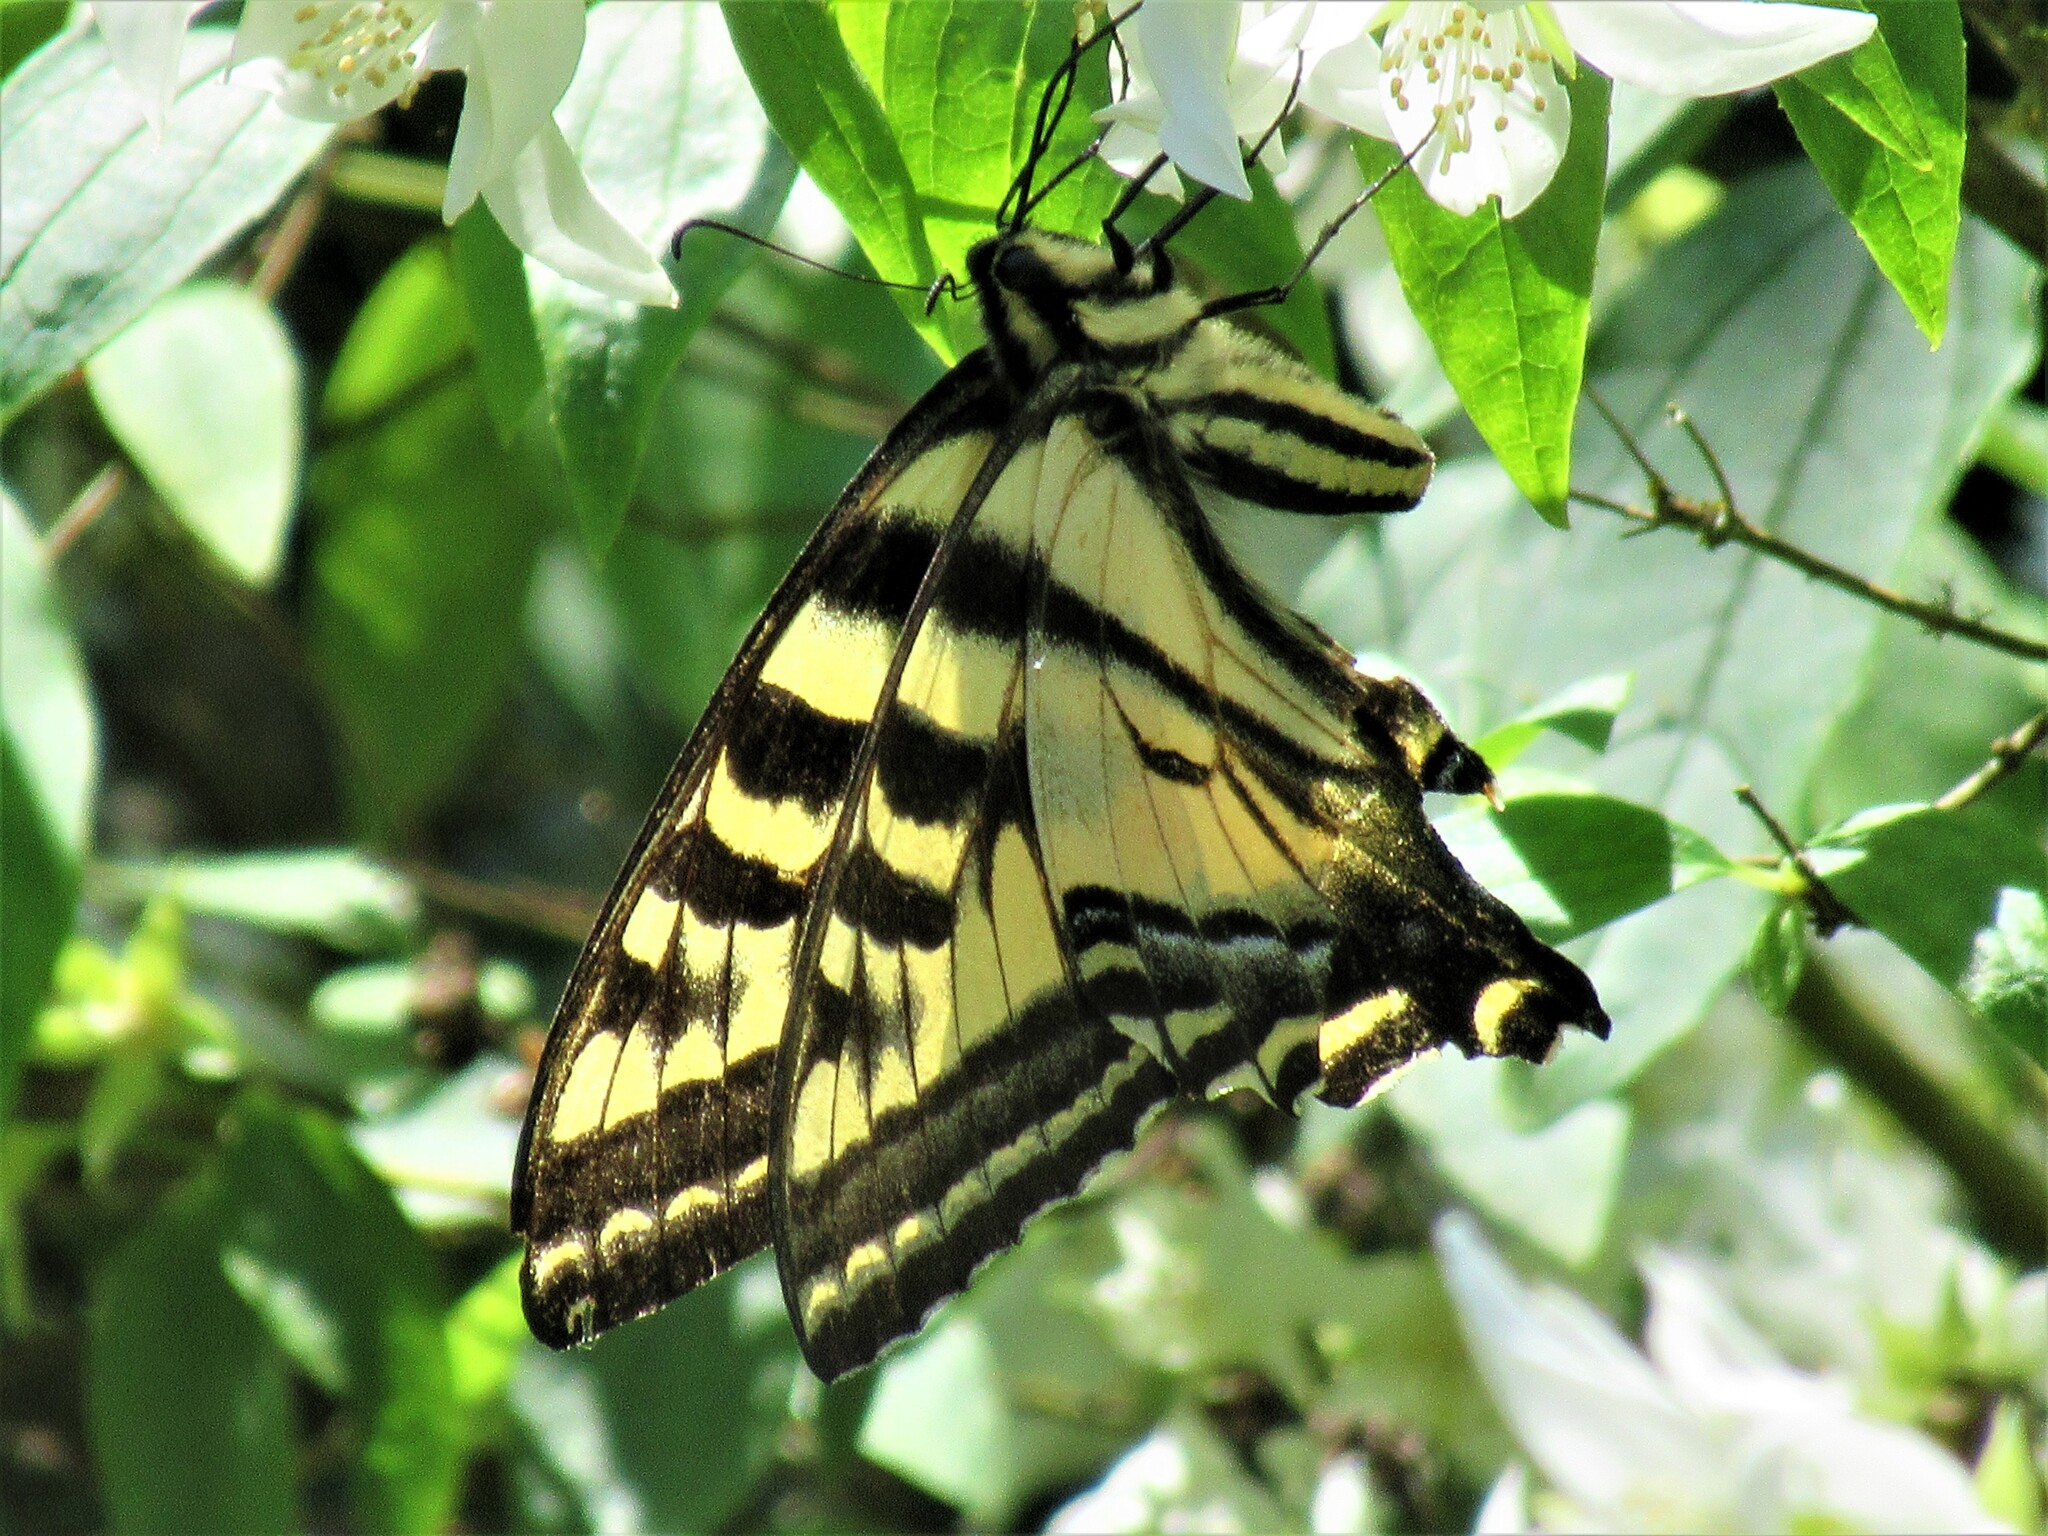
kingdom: Animalia
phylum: Arthropoda
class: Insecta
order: Lepidoptera
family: Papilionidae
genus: Papilio
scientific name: Papilio rutulus
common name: Western tiger swallowtail
